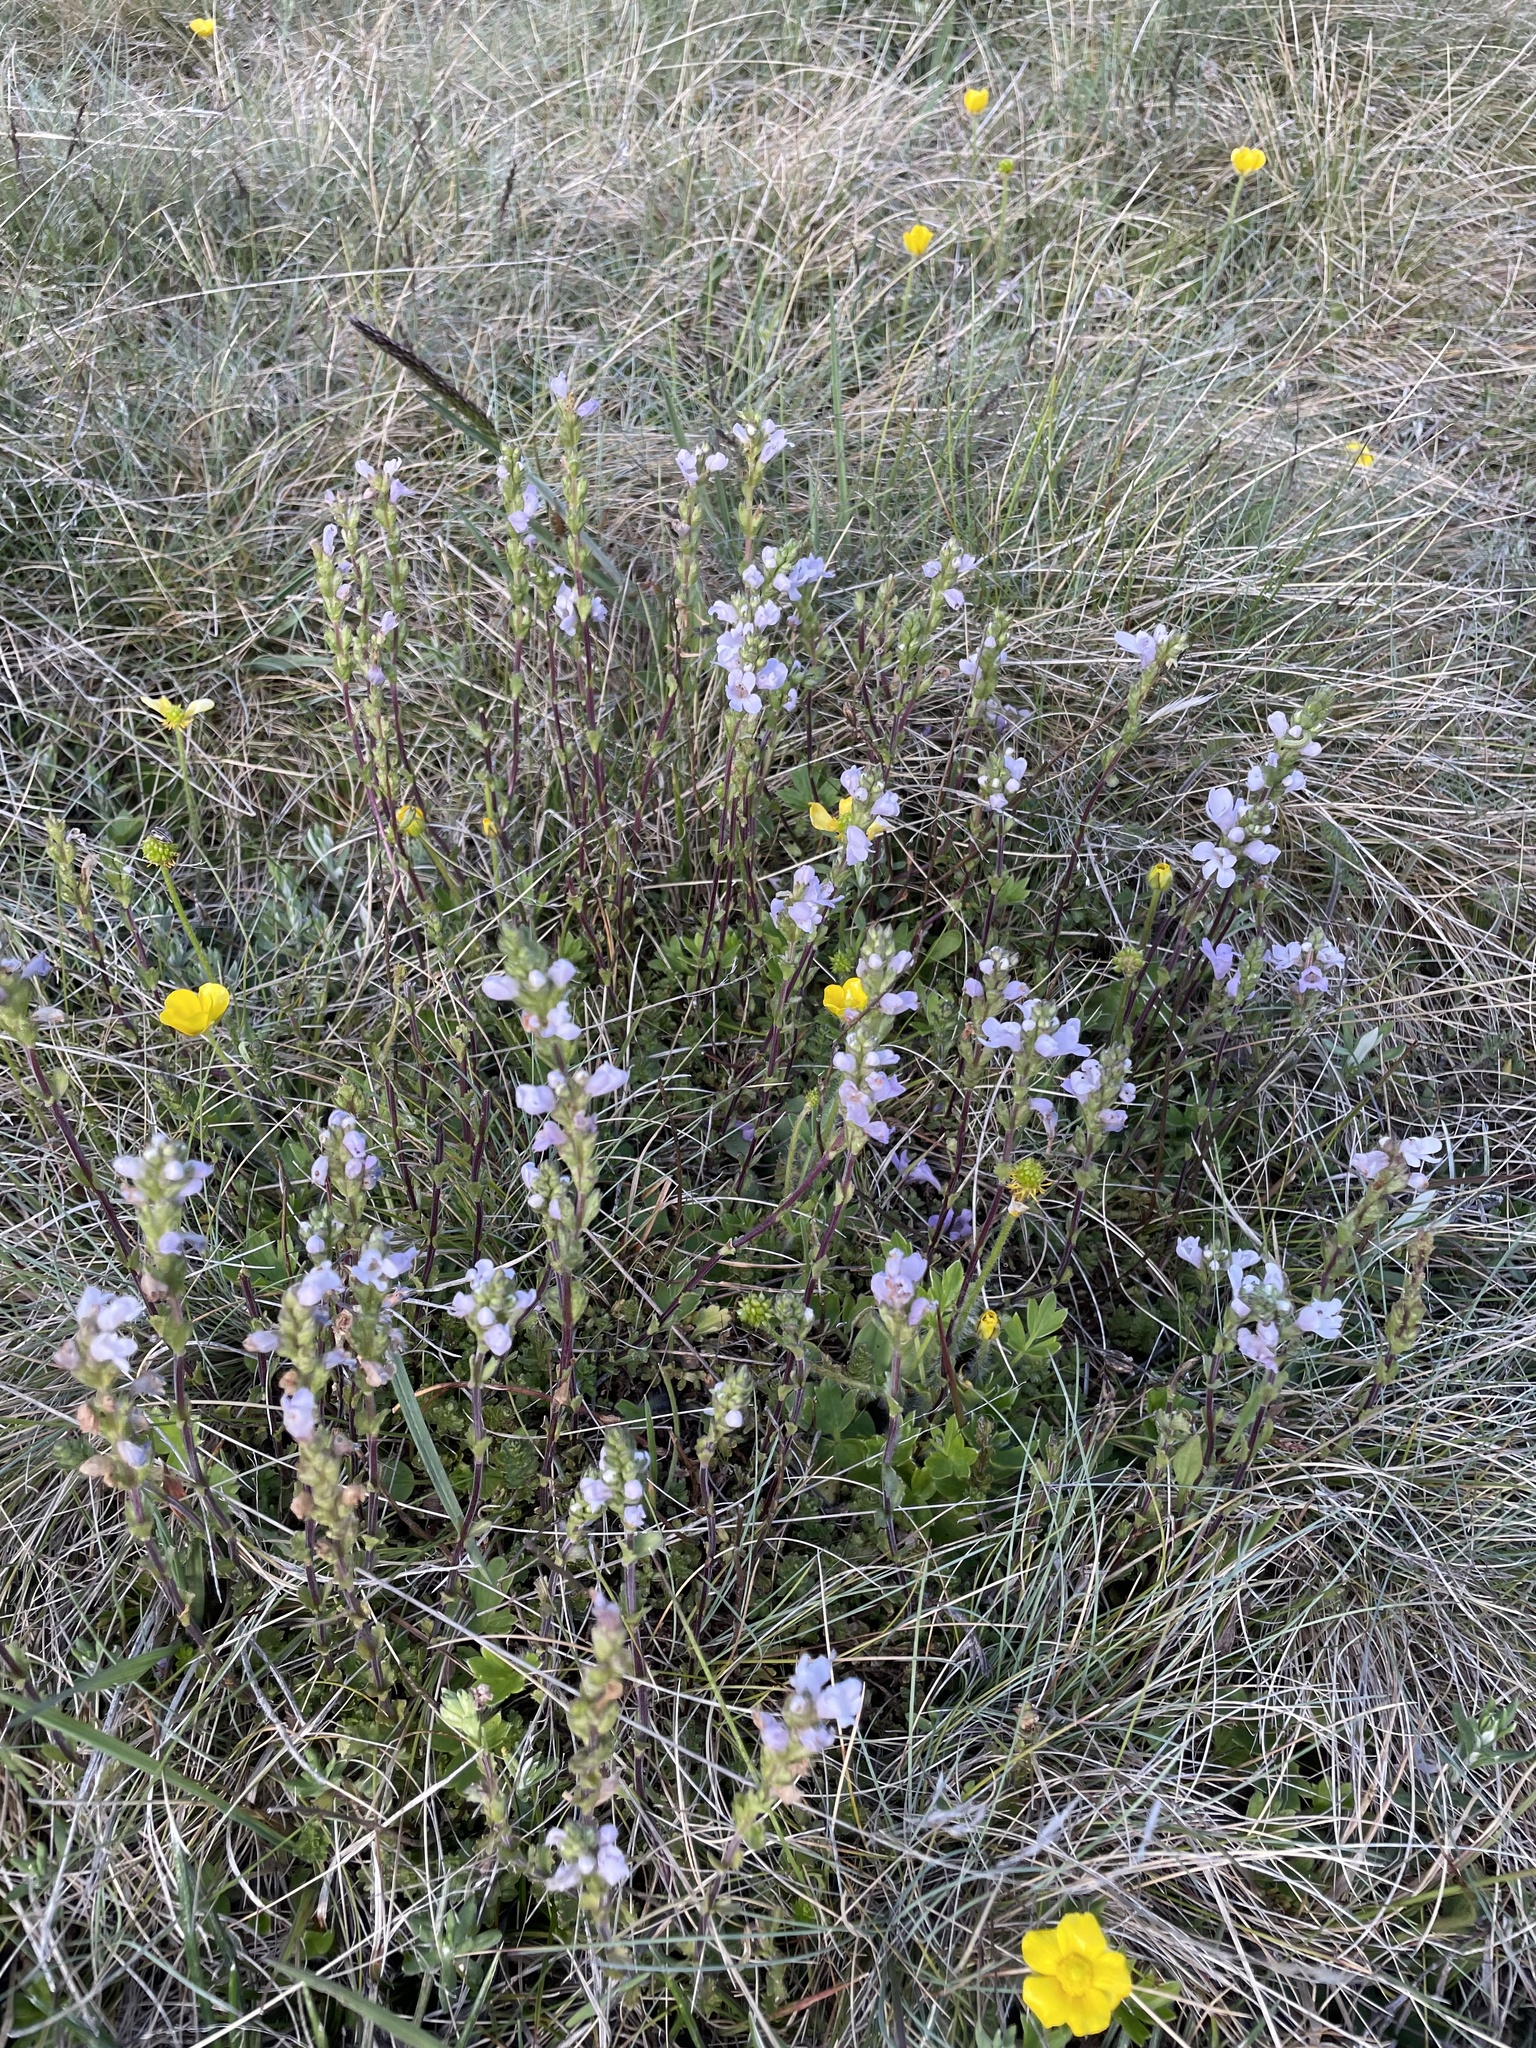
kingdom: Plantae
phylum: Tracheophyta
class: Magnoliopsida
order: Lamiales
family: Orobanchaceae
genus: Euphrasia
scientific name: Euphrasia collina
